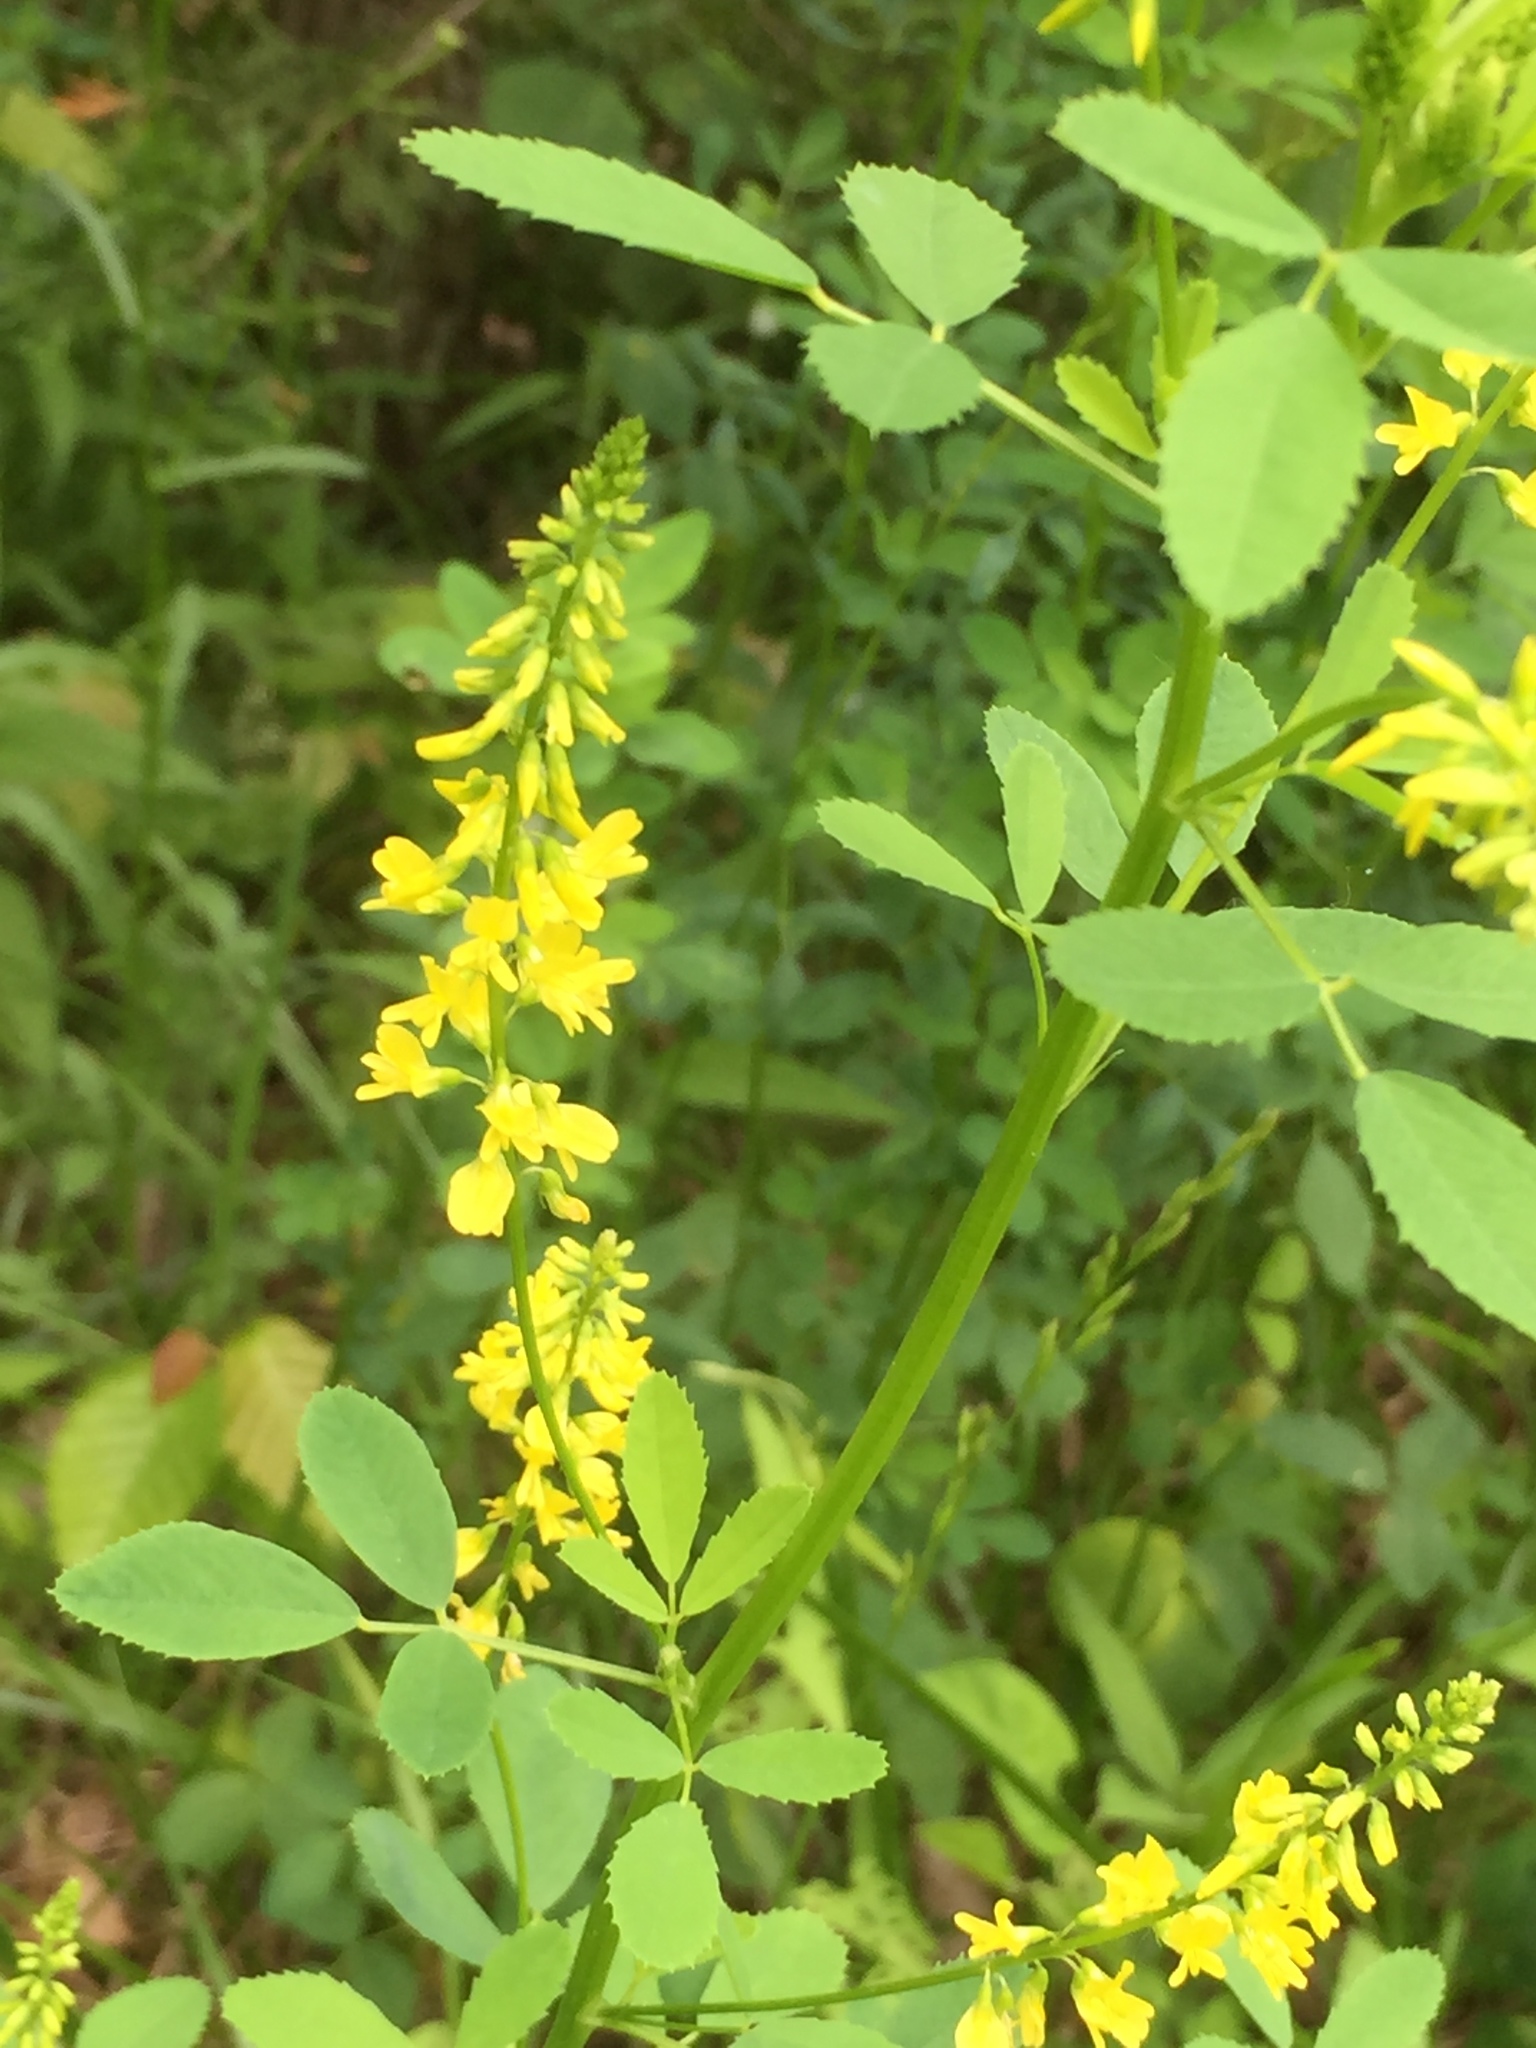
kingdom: Plantae
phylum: Tracheophyta
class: Magnoliopsida
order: Fabales
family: Fabaceae
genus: Melilotus
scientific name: Melilotus officinalis
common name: Sweetclover
